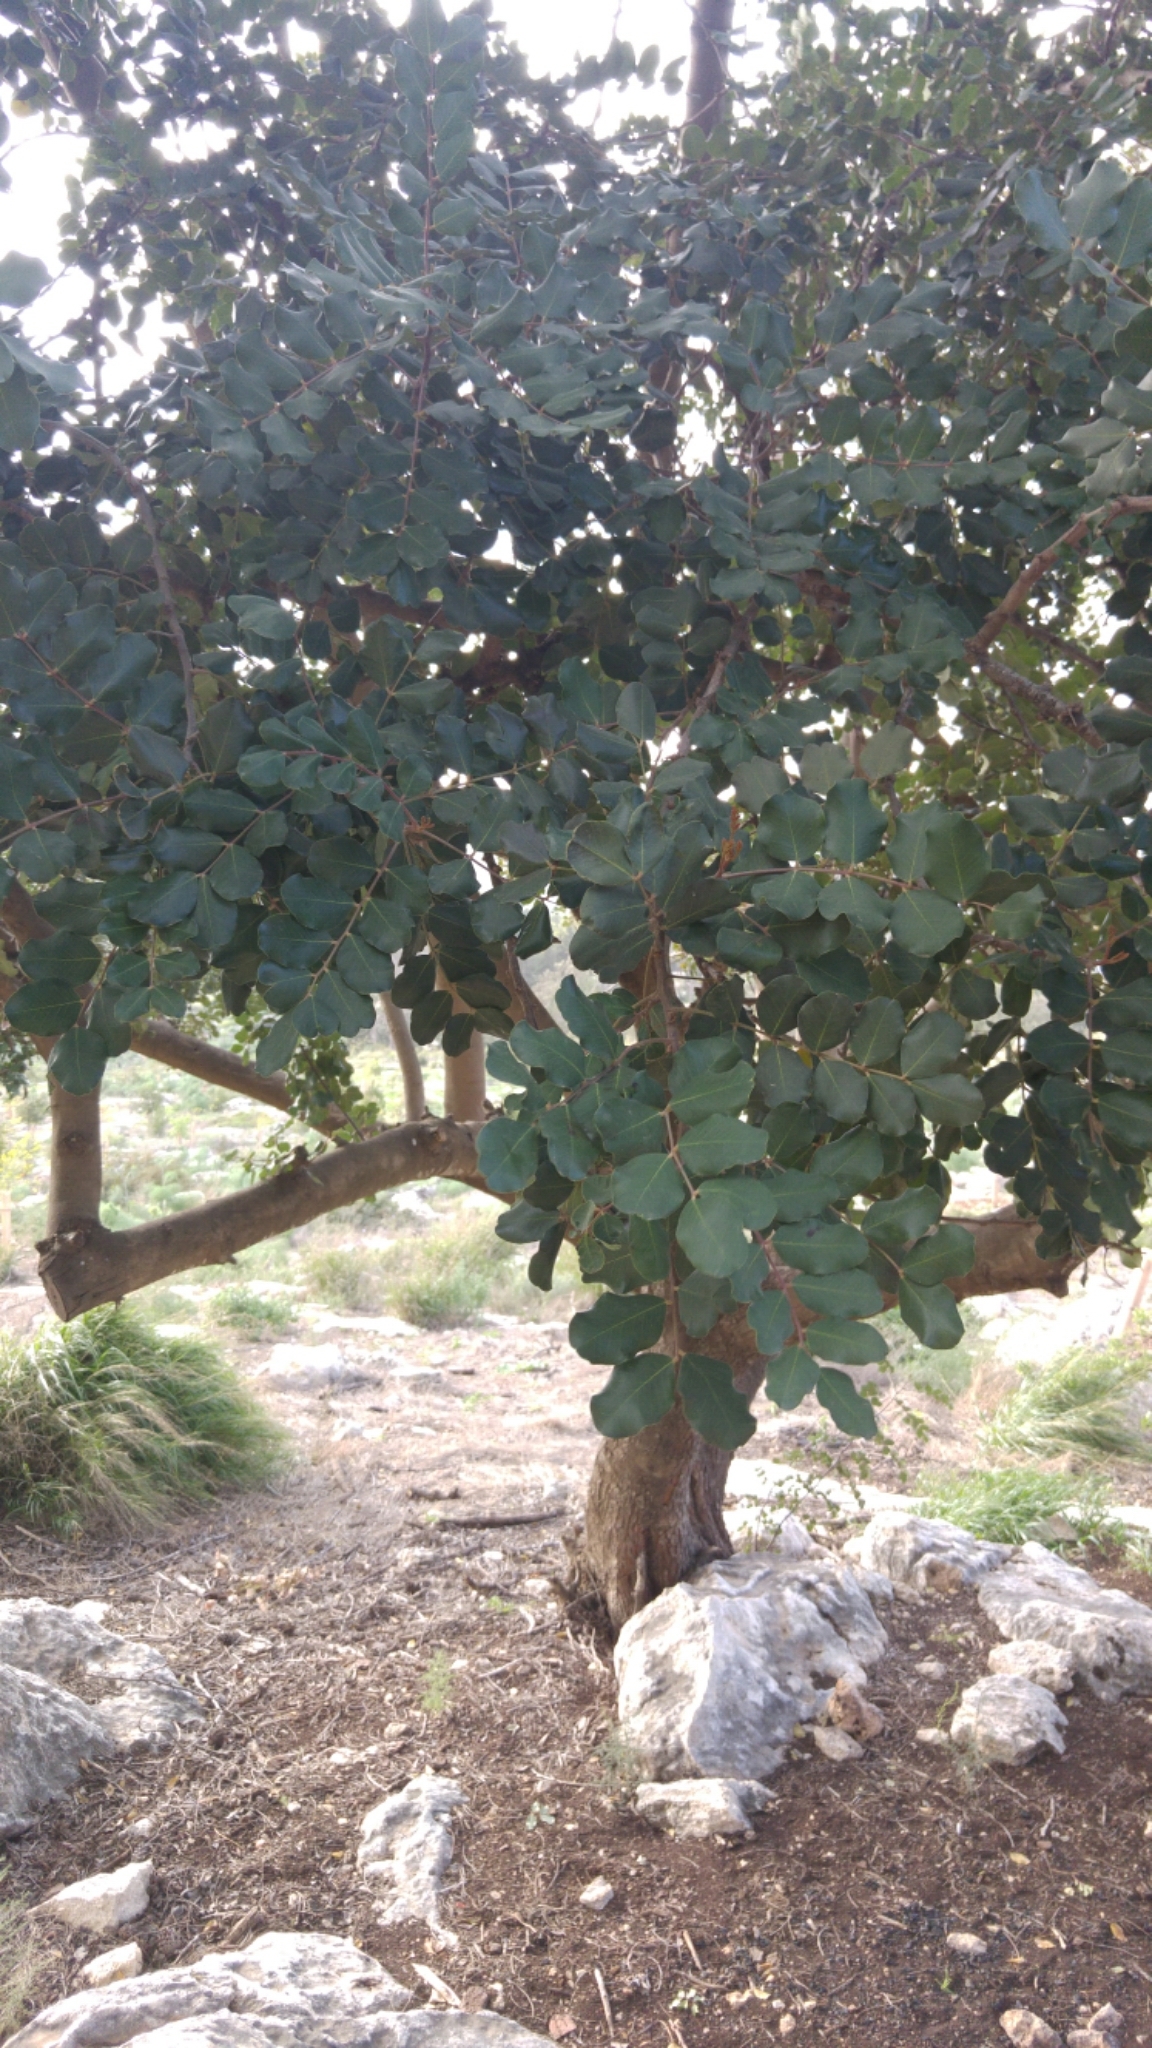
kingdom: Plantae
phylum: Tracheophyta
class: Magnoliopsida
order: Fabales
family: Fabaceae
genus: Ceratonia
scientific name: Ceratonia siliqua
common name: Carob
